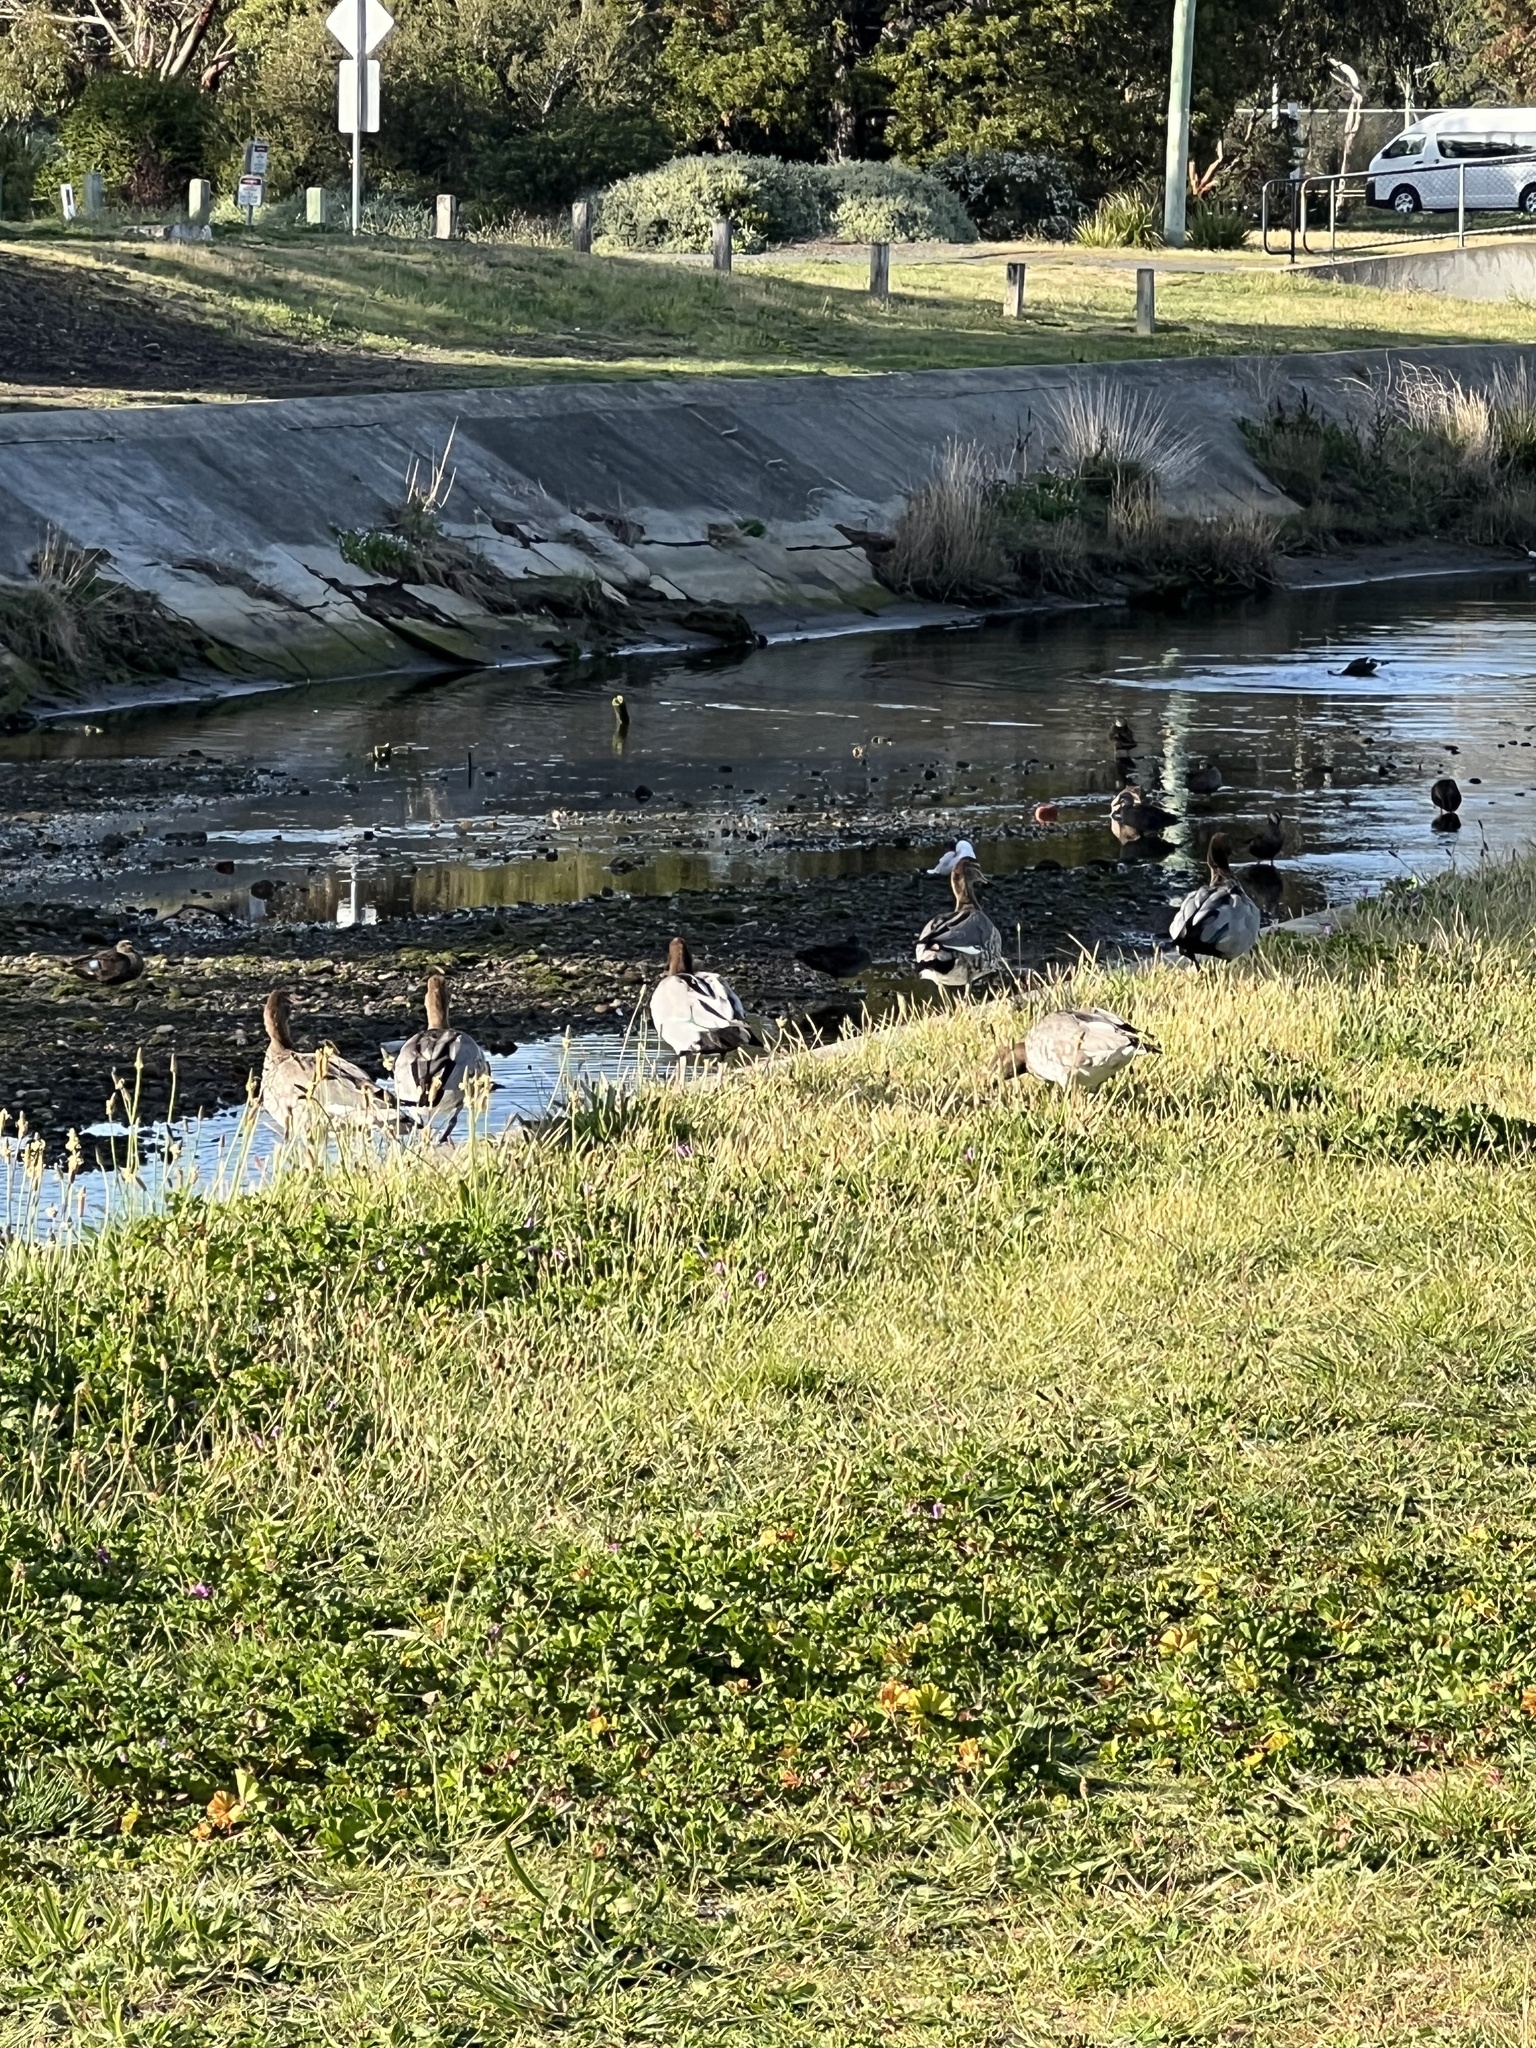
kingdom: Animalia
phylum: Chordata
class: Aves
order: Anseriformes
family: Anatidae
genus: Chenonetta
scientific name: Chenonetta jubata
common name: Maned duck
